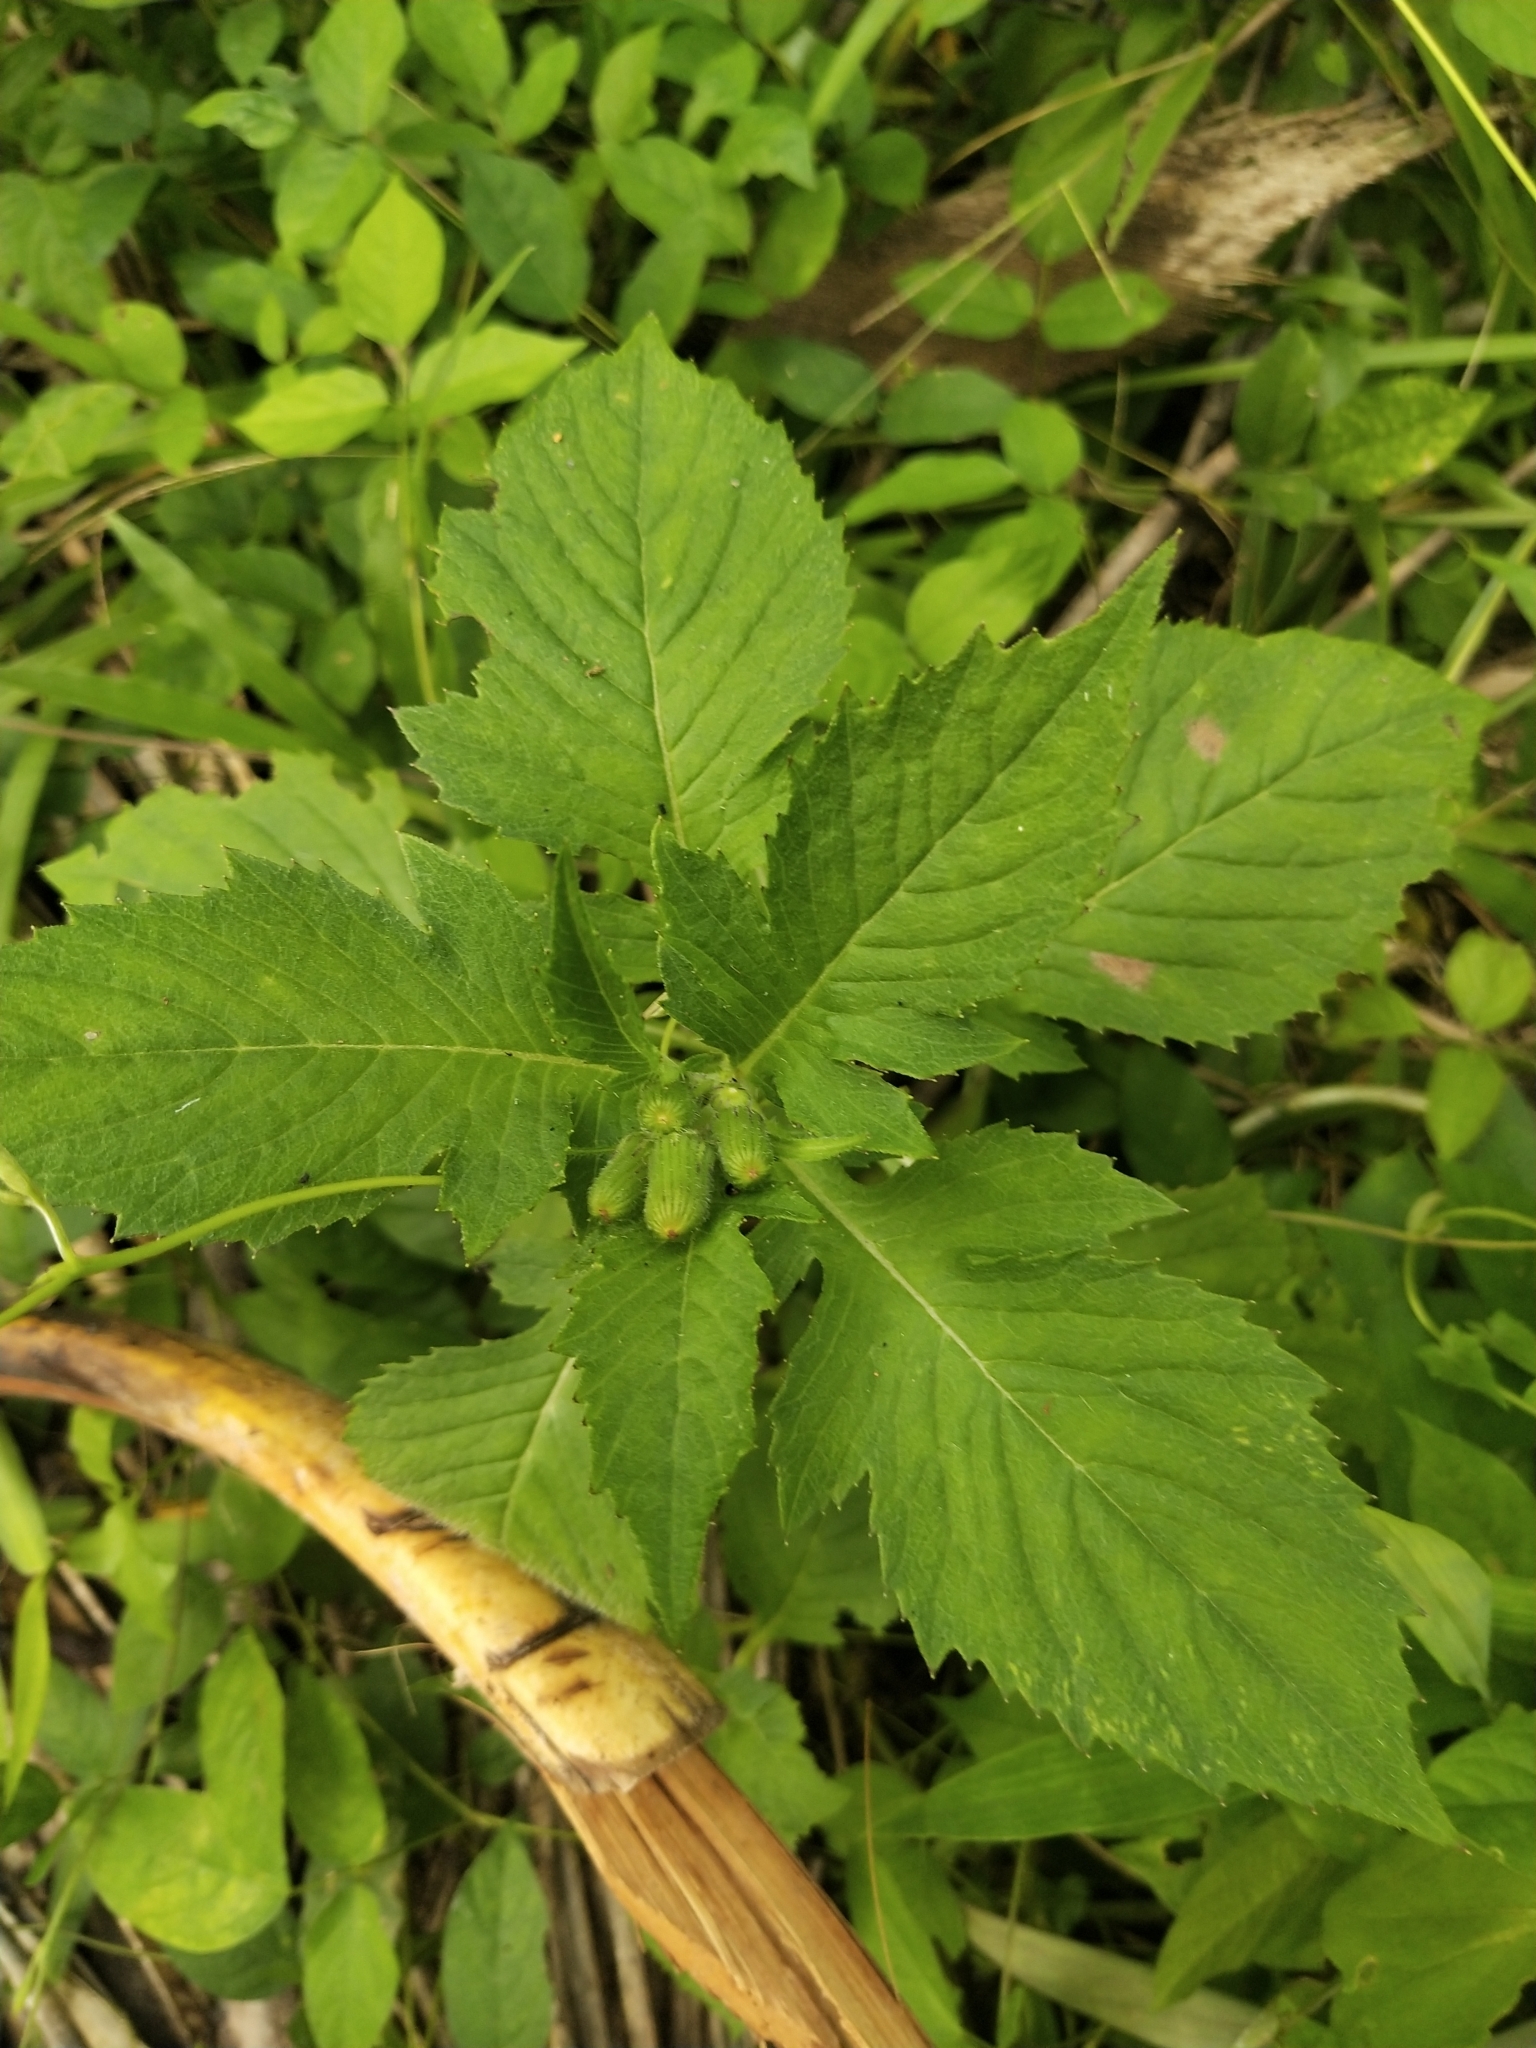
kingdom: Plantae
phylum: Tracheophyta
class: Magnoliopsida
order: Asterales
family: Asteraceae
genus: Crassocephalum
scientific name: Crassocephalum crepidioides
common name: Redflower ragleaf
